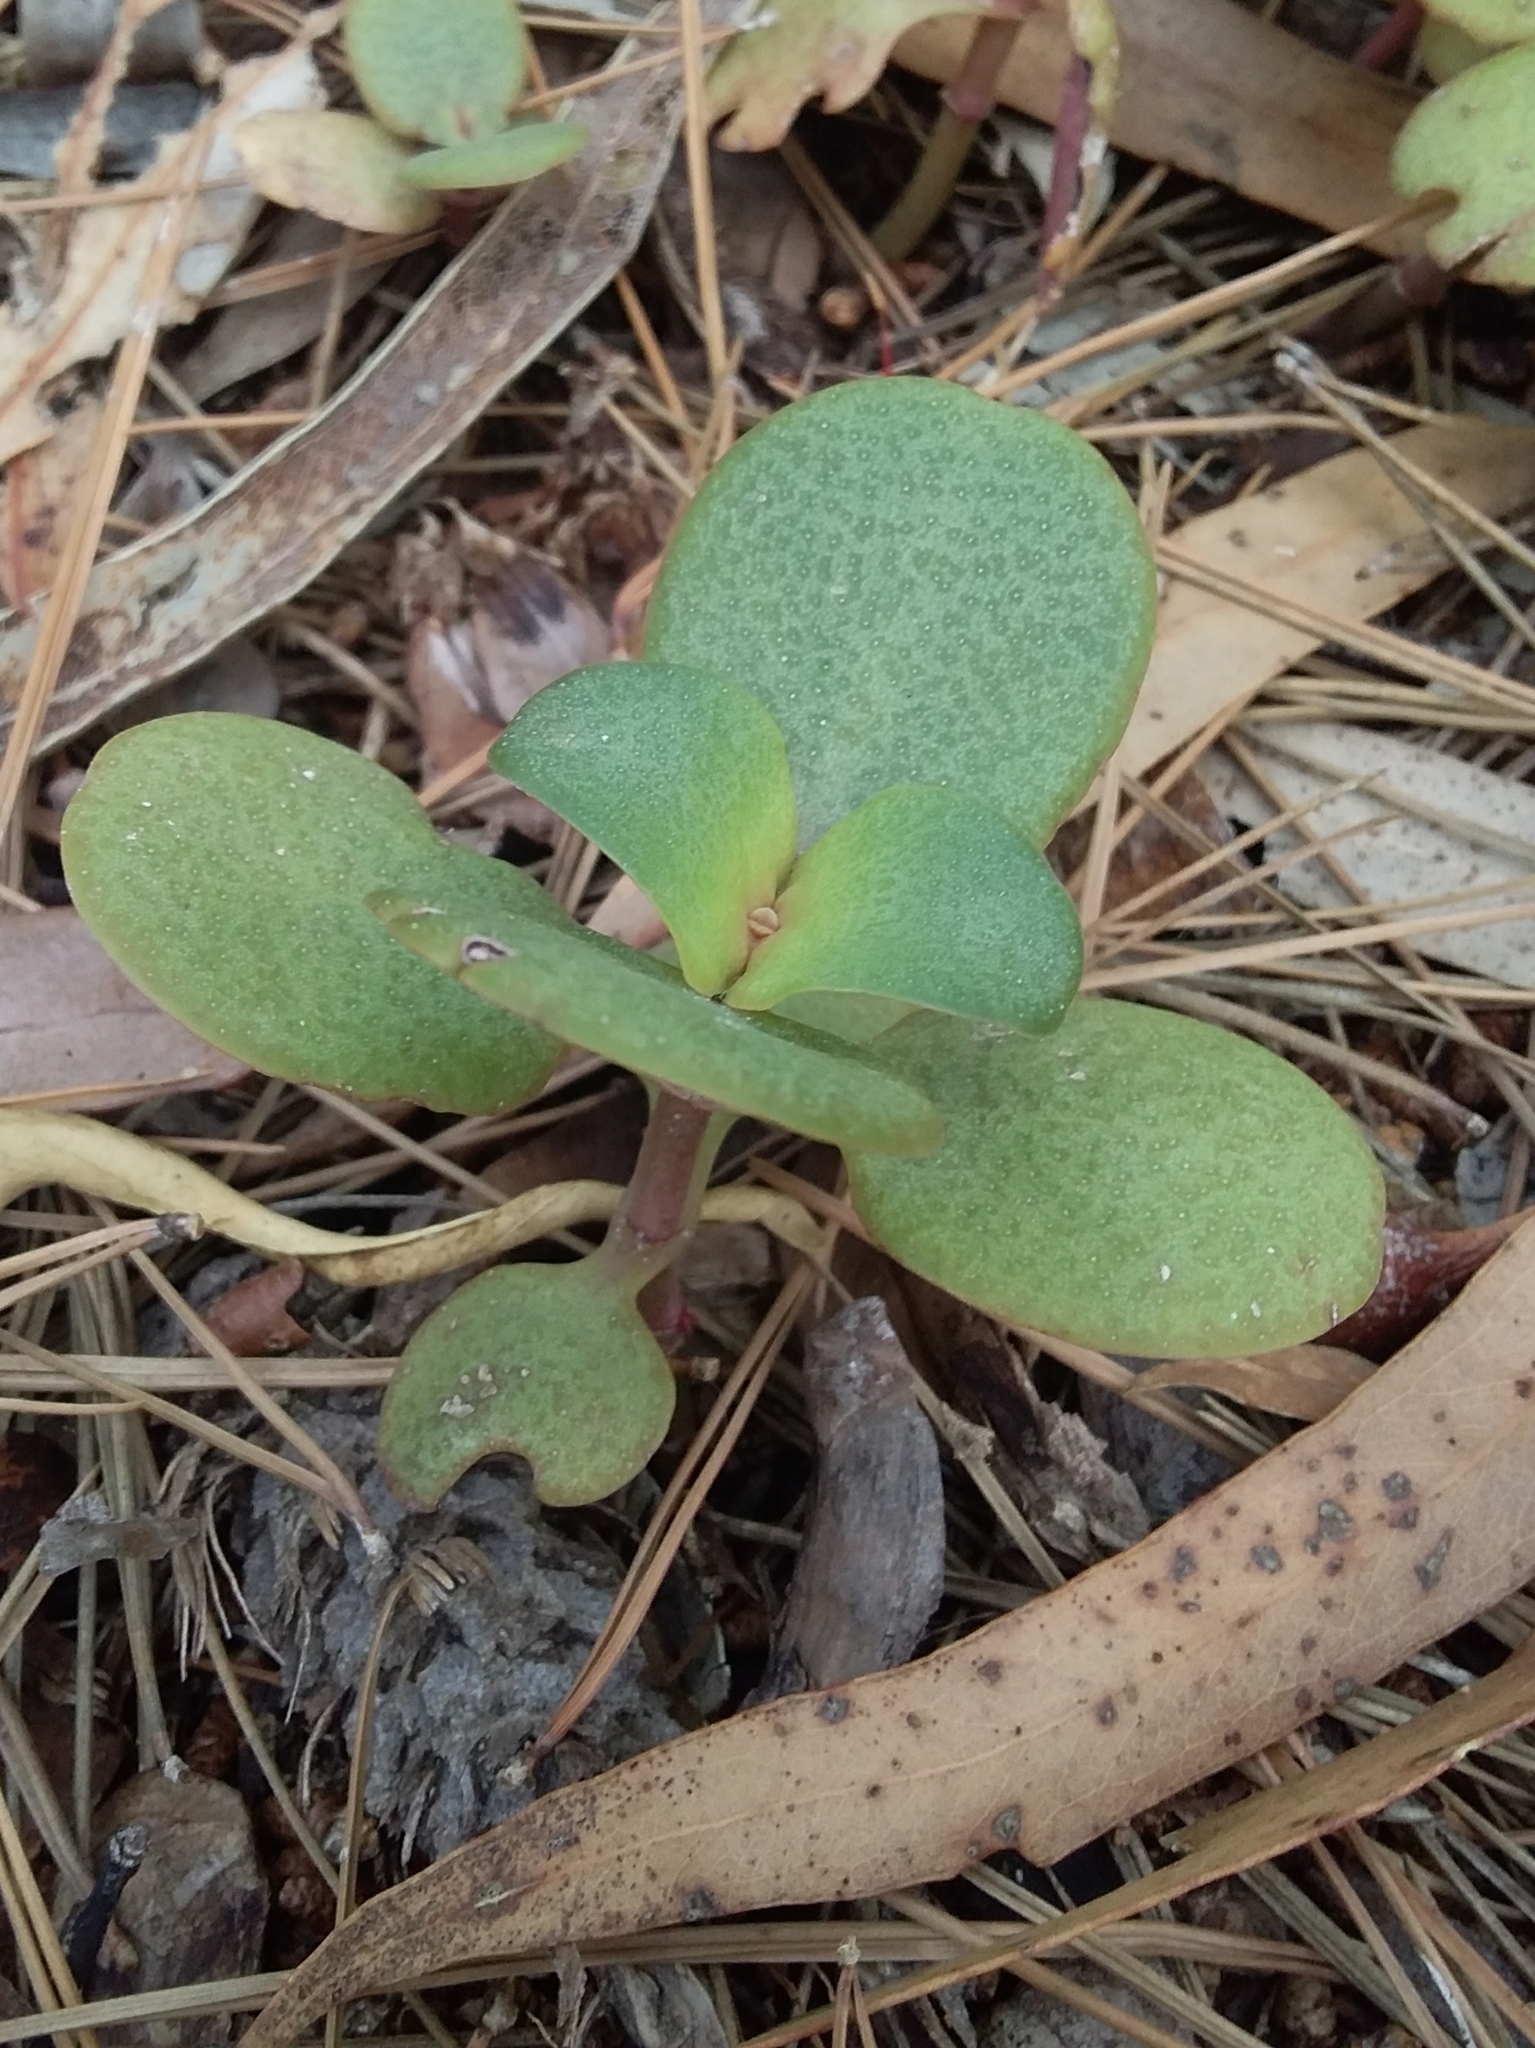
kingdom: Plantae
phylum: Tracheophyta
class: Magnoliopsida
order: Saxifragales
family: Crassulaceae
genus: Crassula
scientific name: Crassula multicava
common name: Cape province pygmyweed
